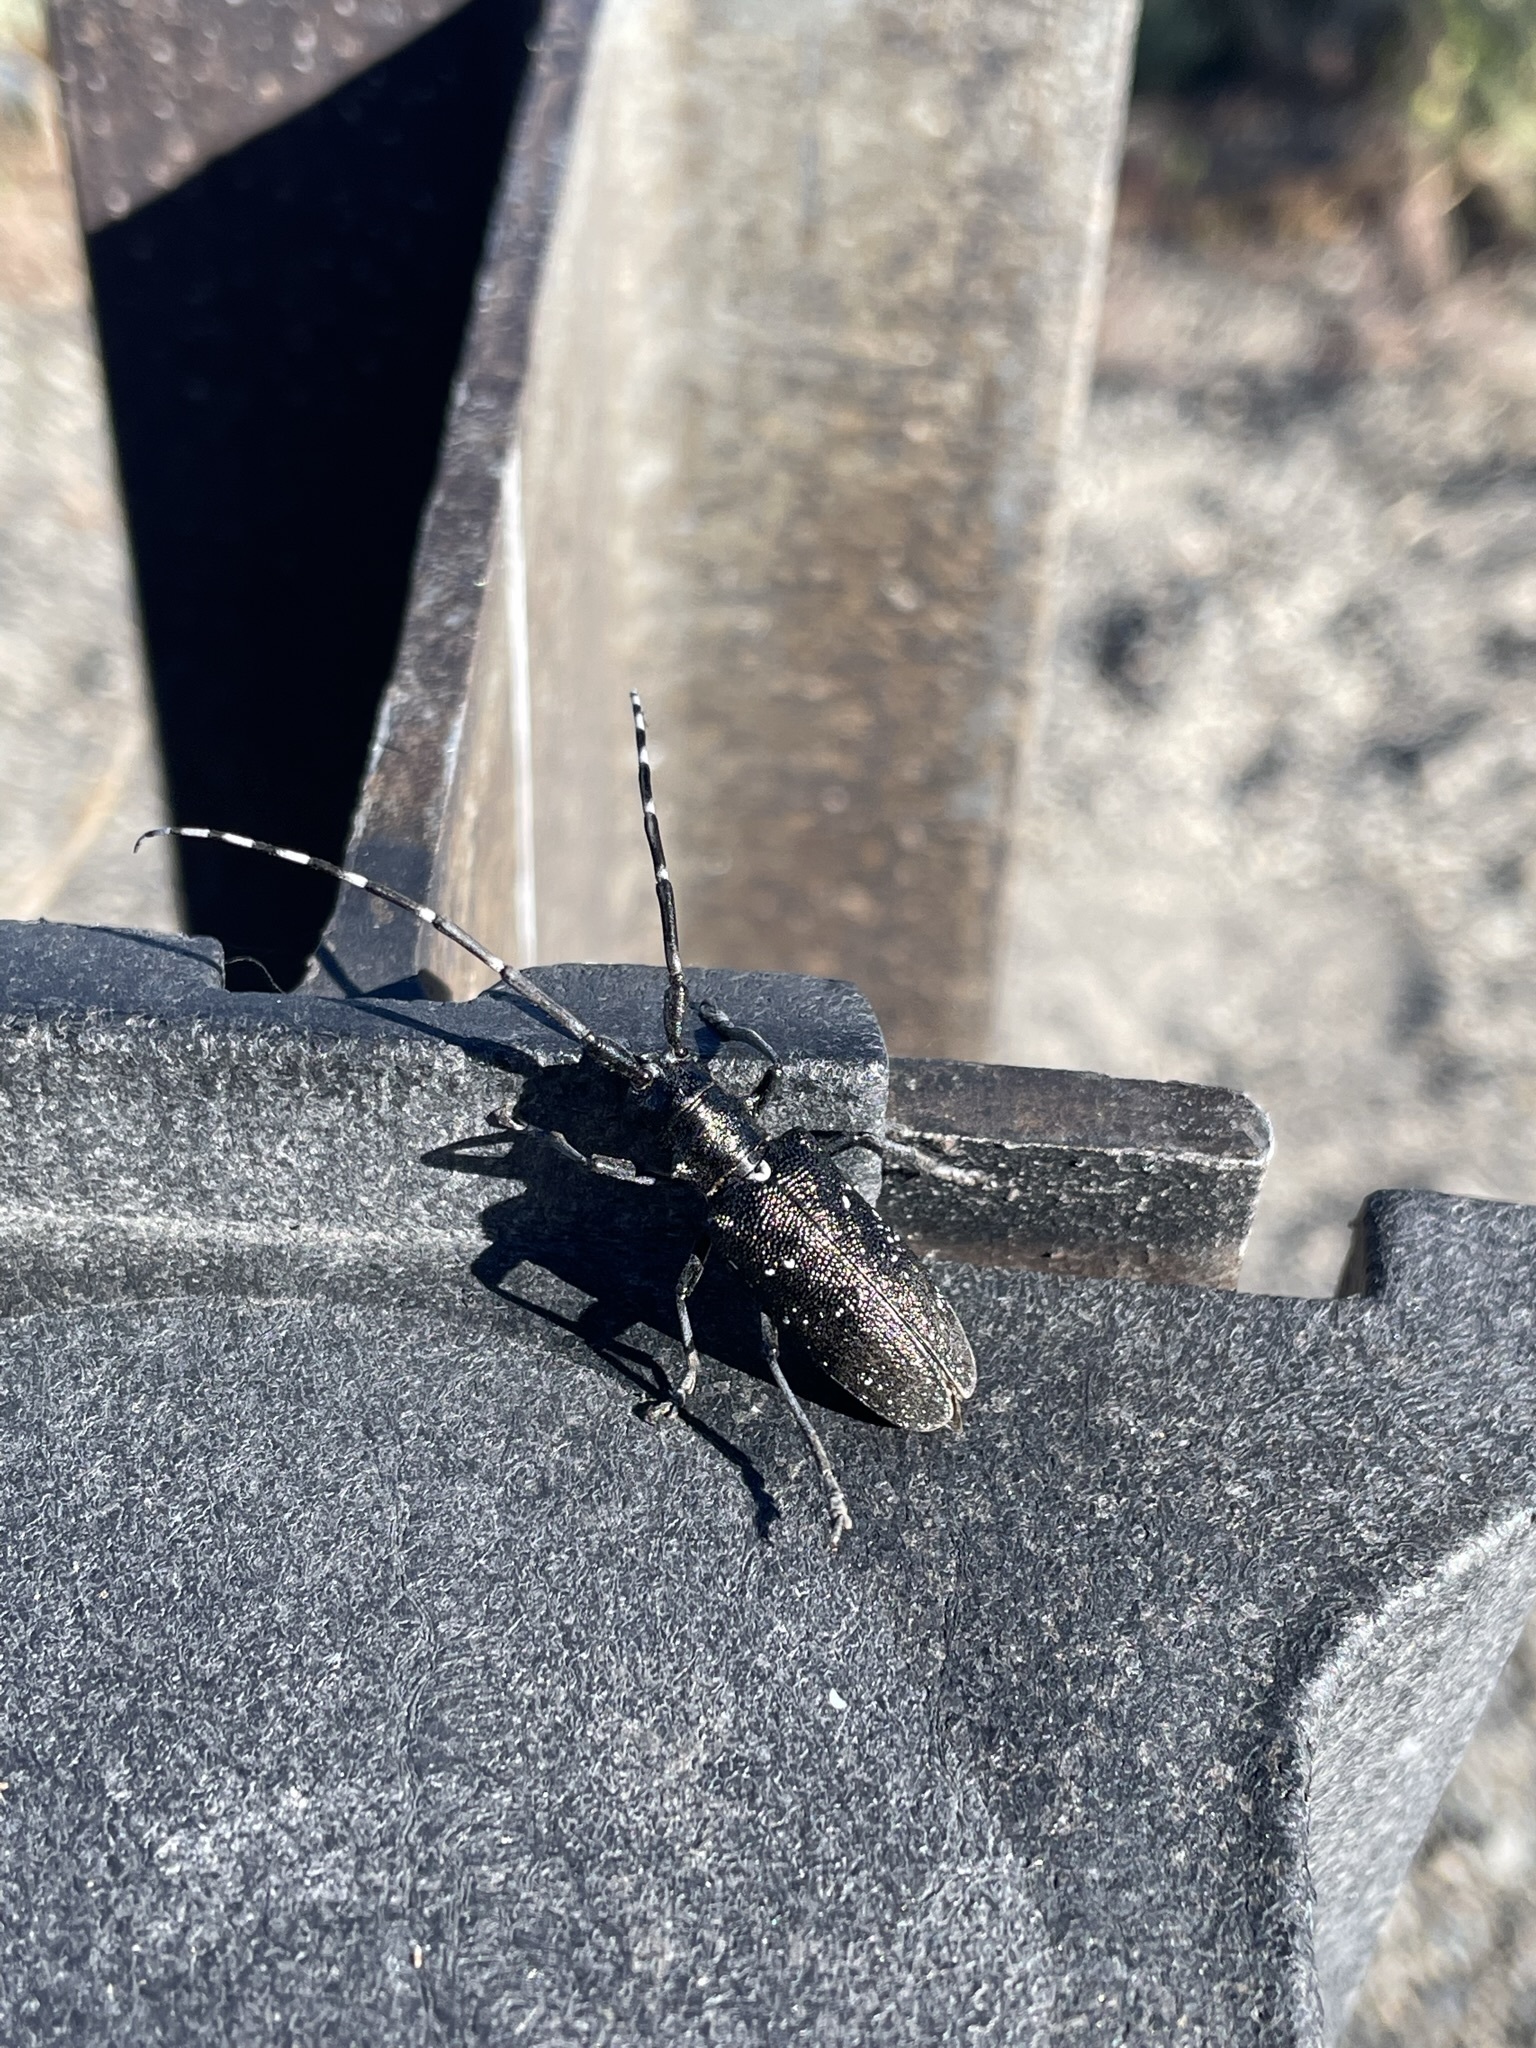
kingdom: Animalia
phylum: Arthropoda
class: Insecta
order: Coleoptera
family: Cerambycidae
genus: Monochamus
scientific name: Monochamus scutellatus
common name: White-spotted sawyer beetle
